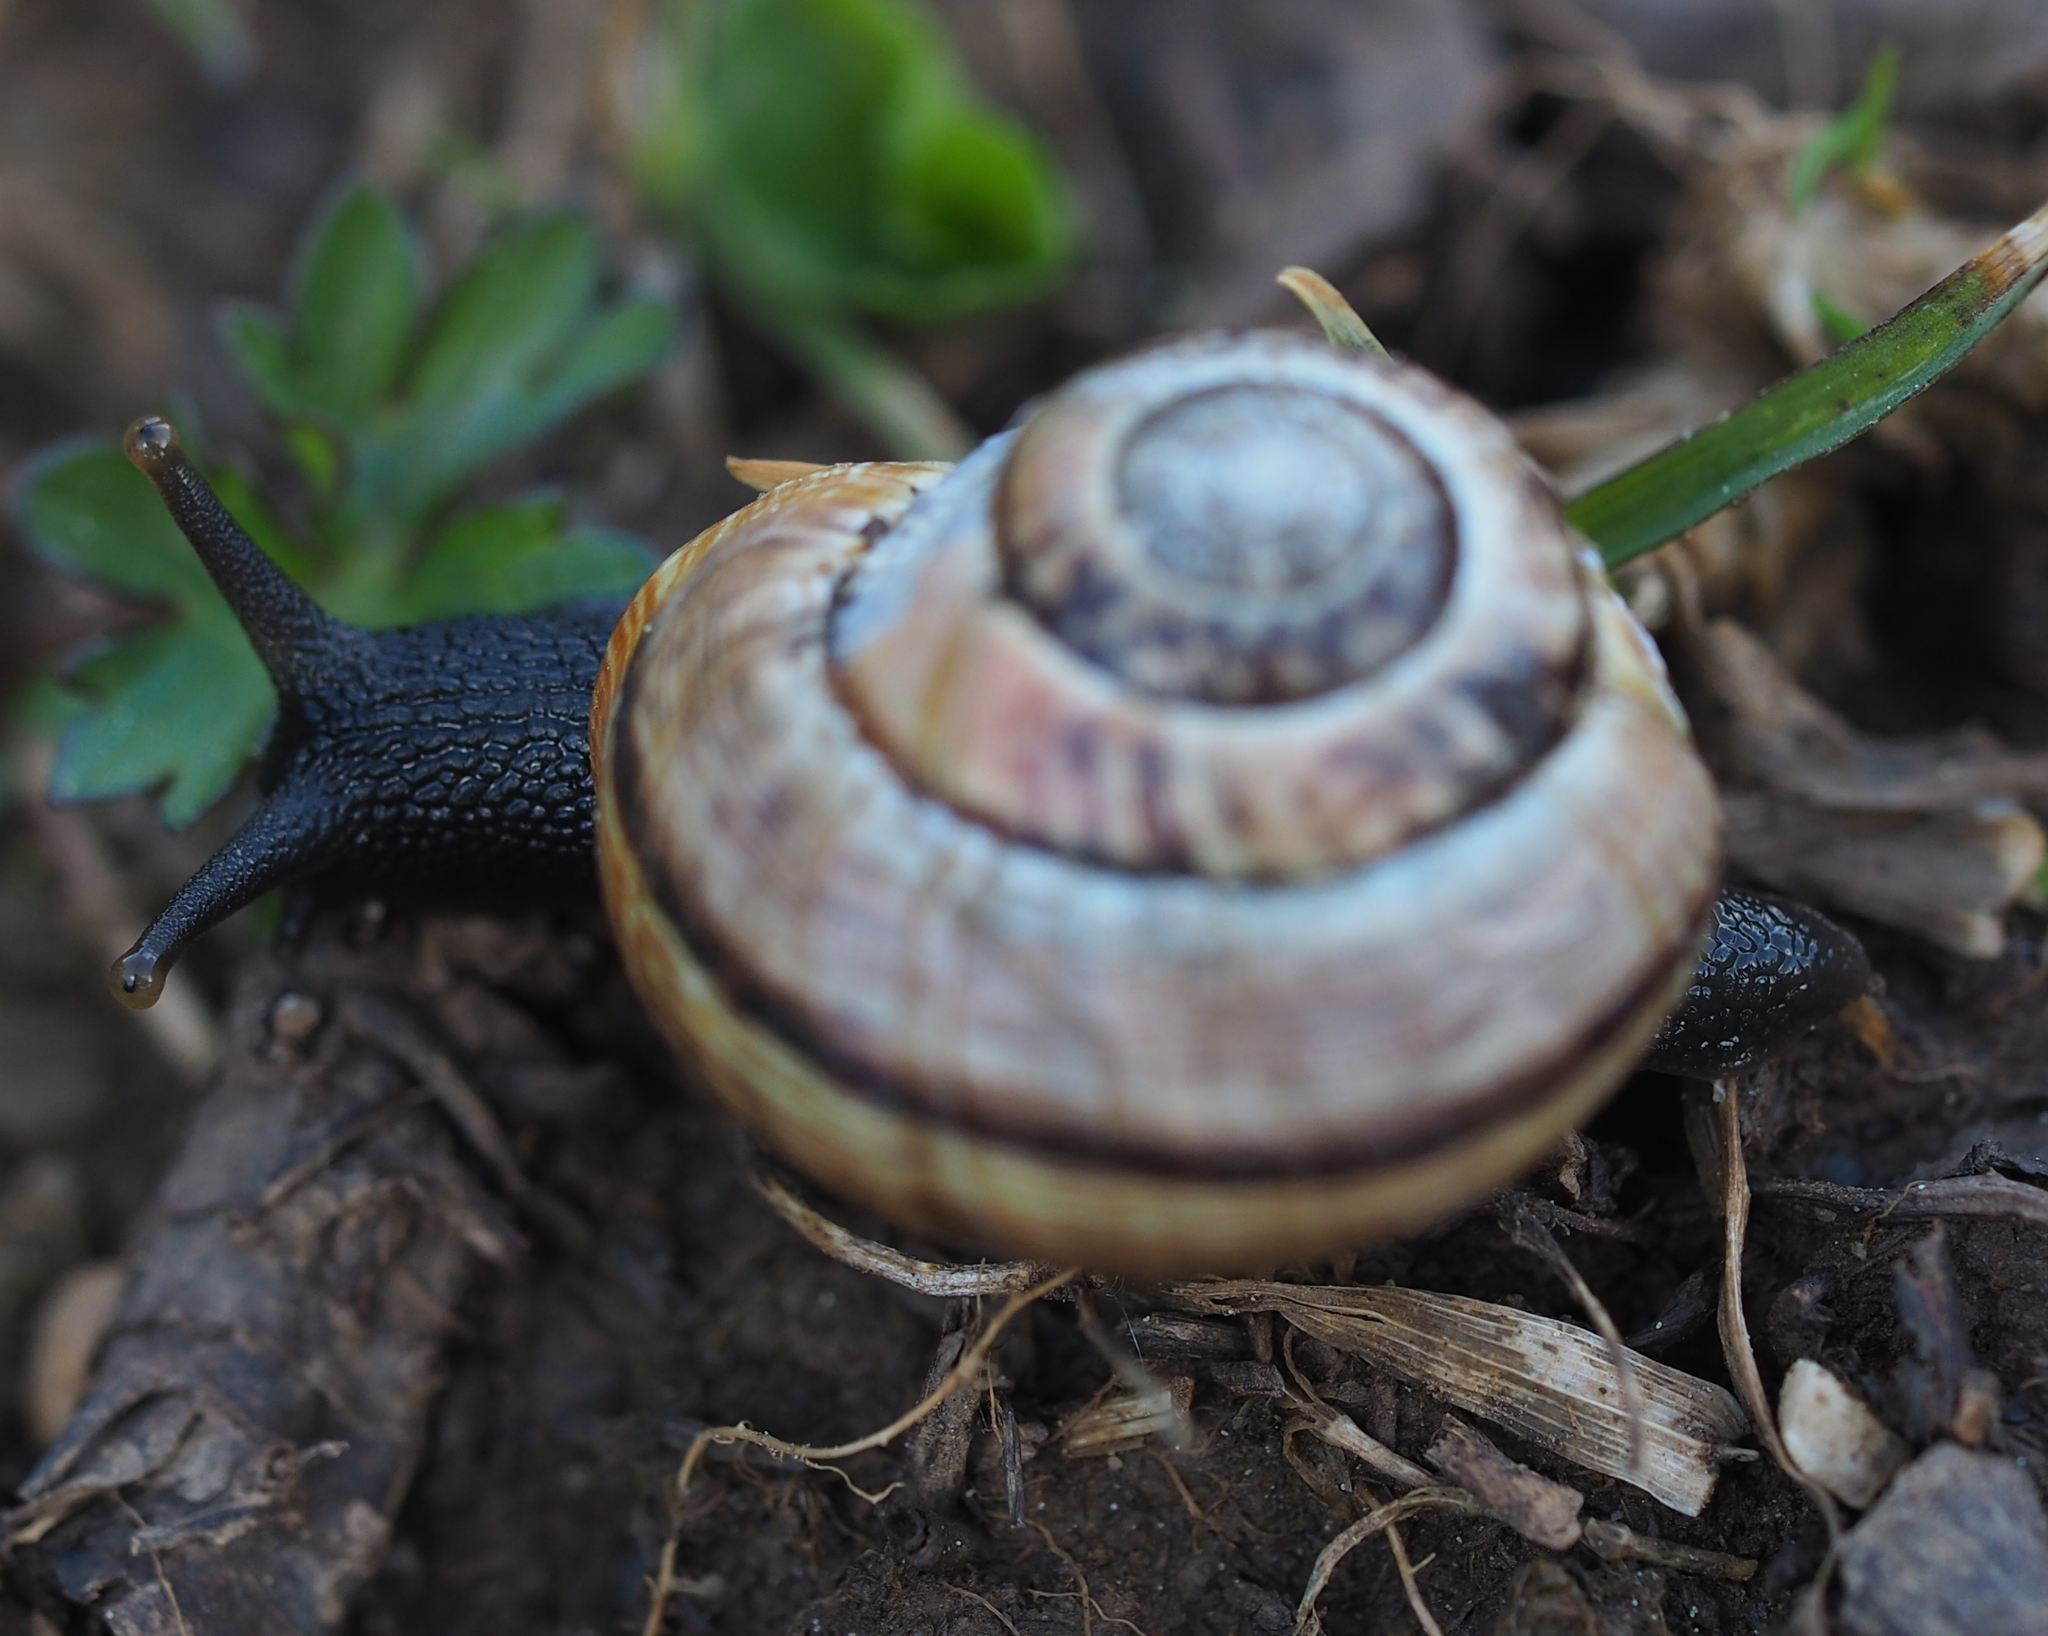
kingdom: Animalia
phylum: Mollusca
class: Gastropoda
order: Stylommatophora
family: Helicidae
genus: Arianta
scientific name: Arianta arbustorum
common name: Copse snail
